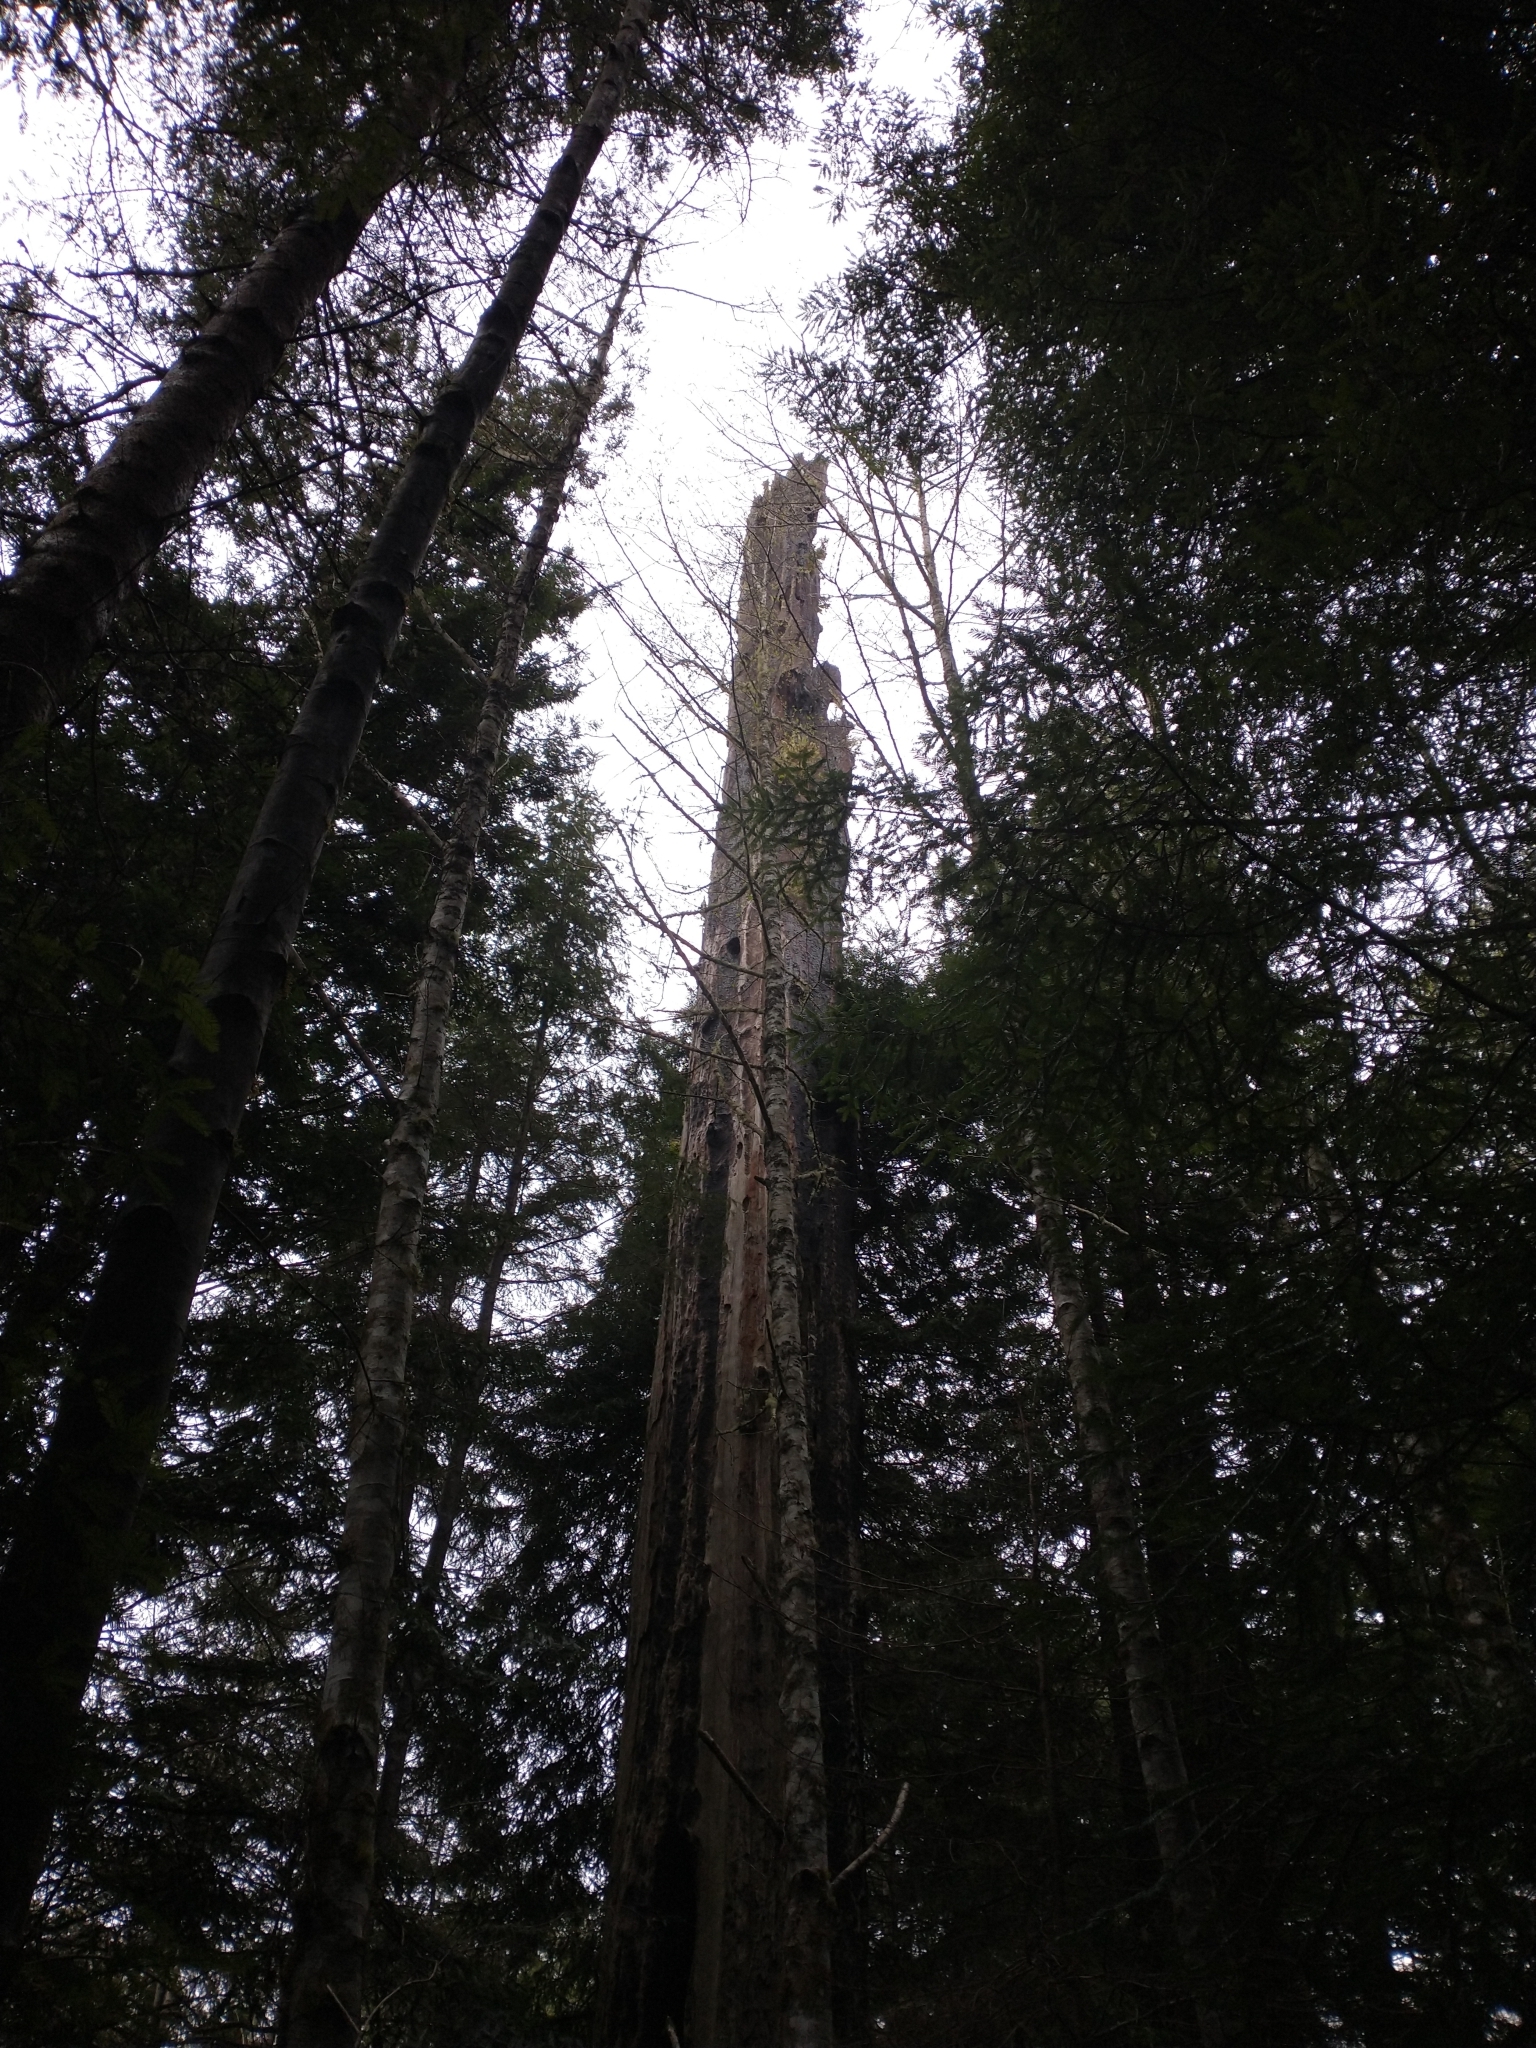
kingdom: Plantae
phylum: Tracheophyta
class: Pinopsida
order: Pinales
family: Cupressaceae
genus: Sequoia
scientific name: Sequoia sempervirens
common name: Coast redwood
